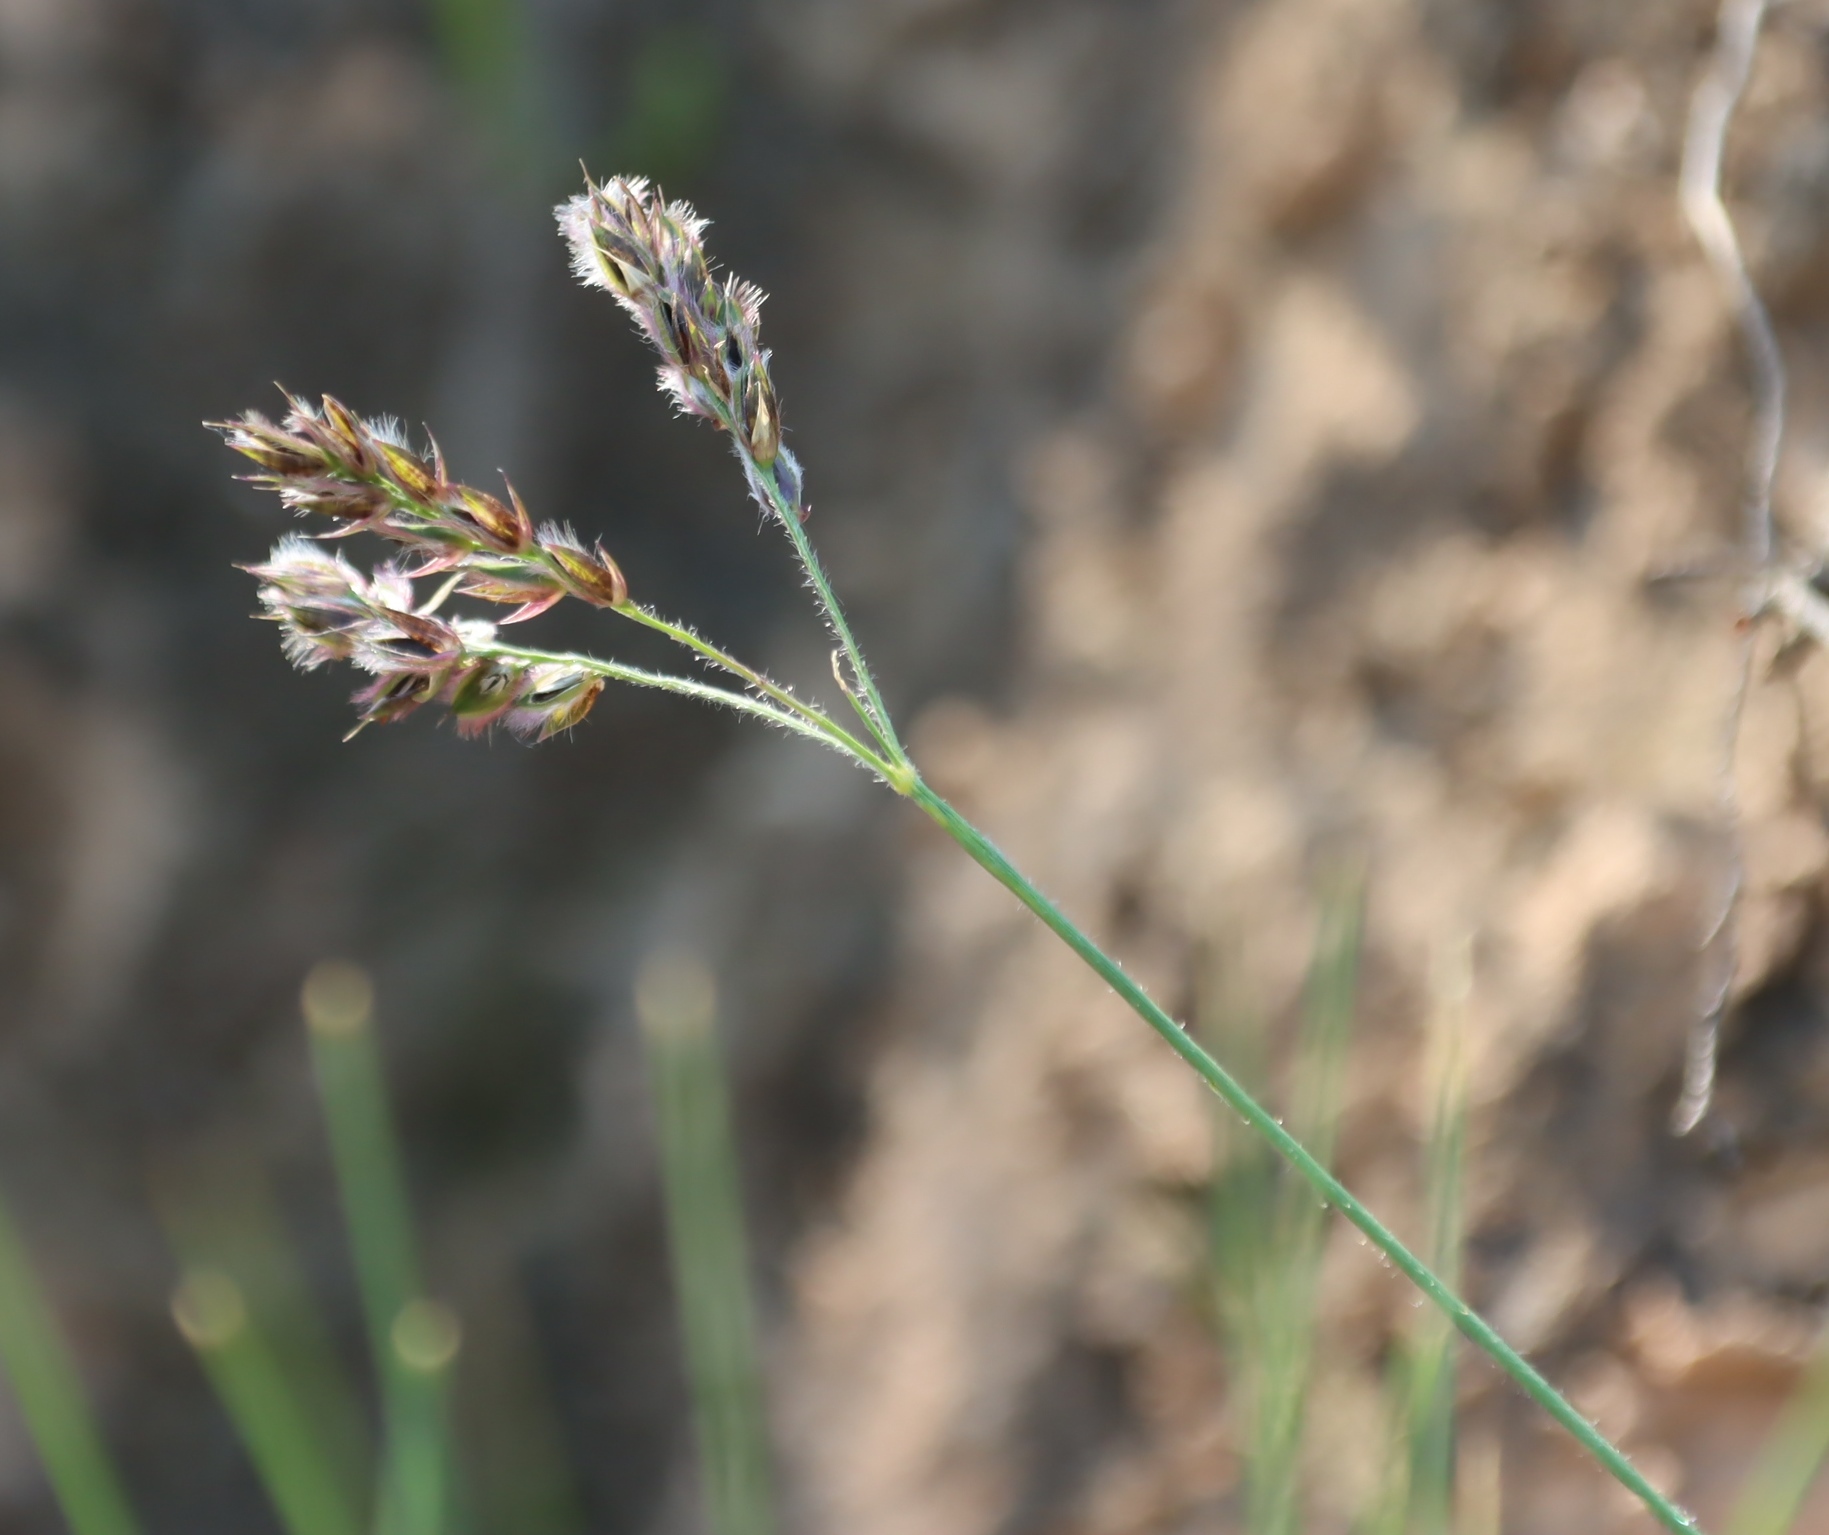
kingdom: Plantae
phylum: Tracheophyta
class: Liliopsida
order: Poales
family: Poaceae
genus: Alloteropsis
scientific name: Alloteropsis semialata
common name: Cockatoo grass
